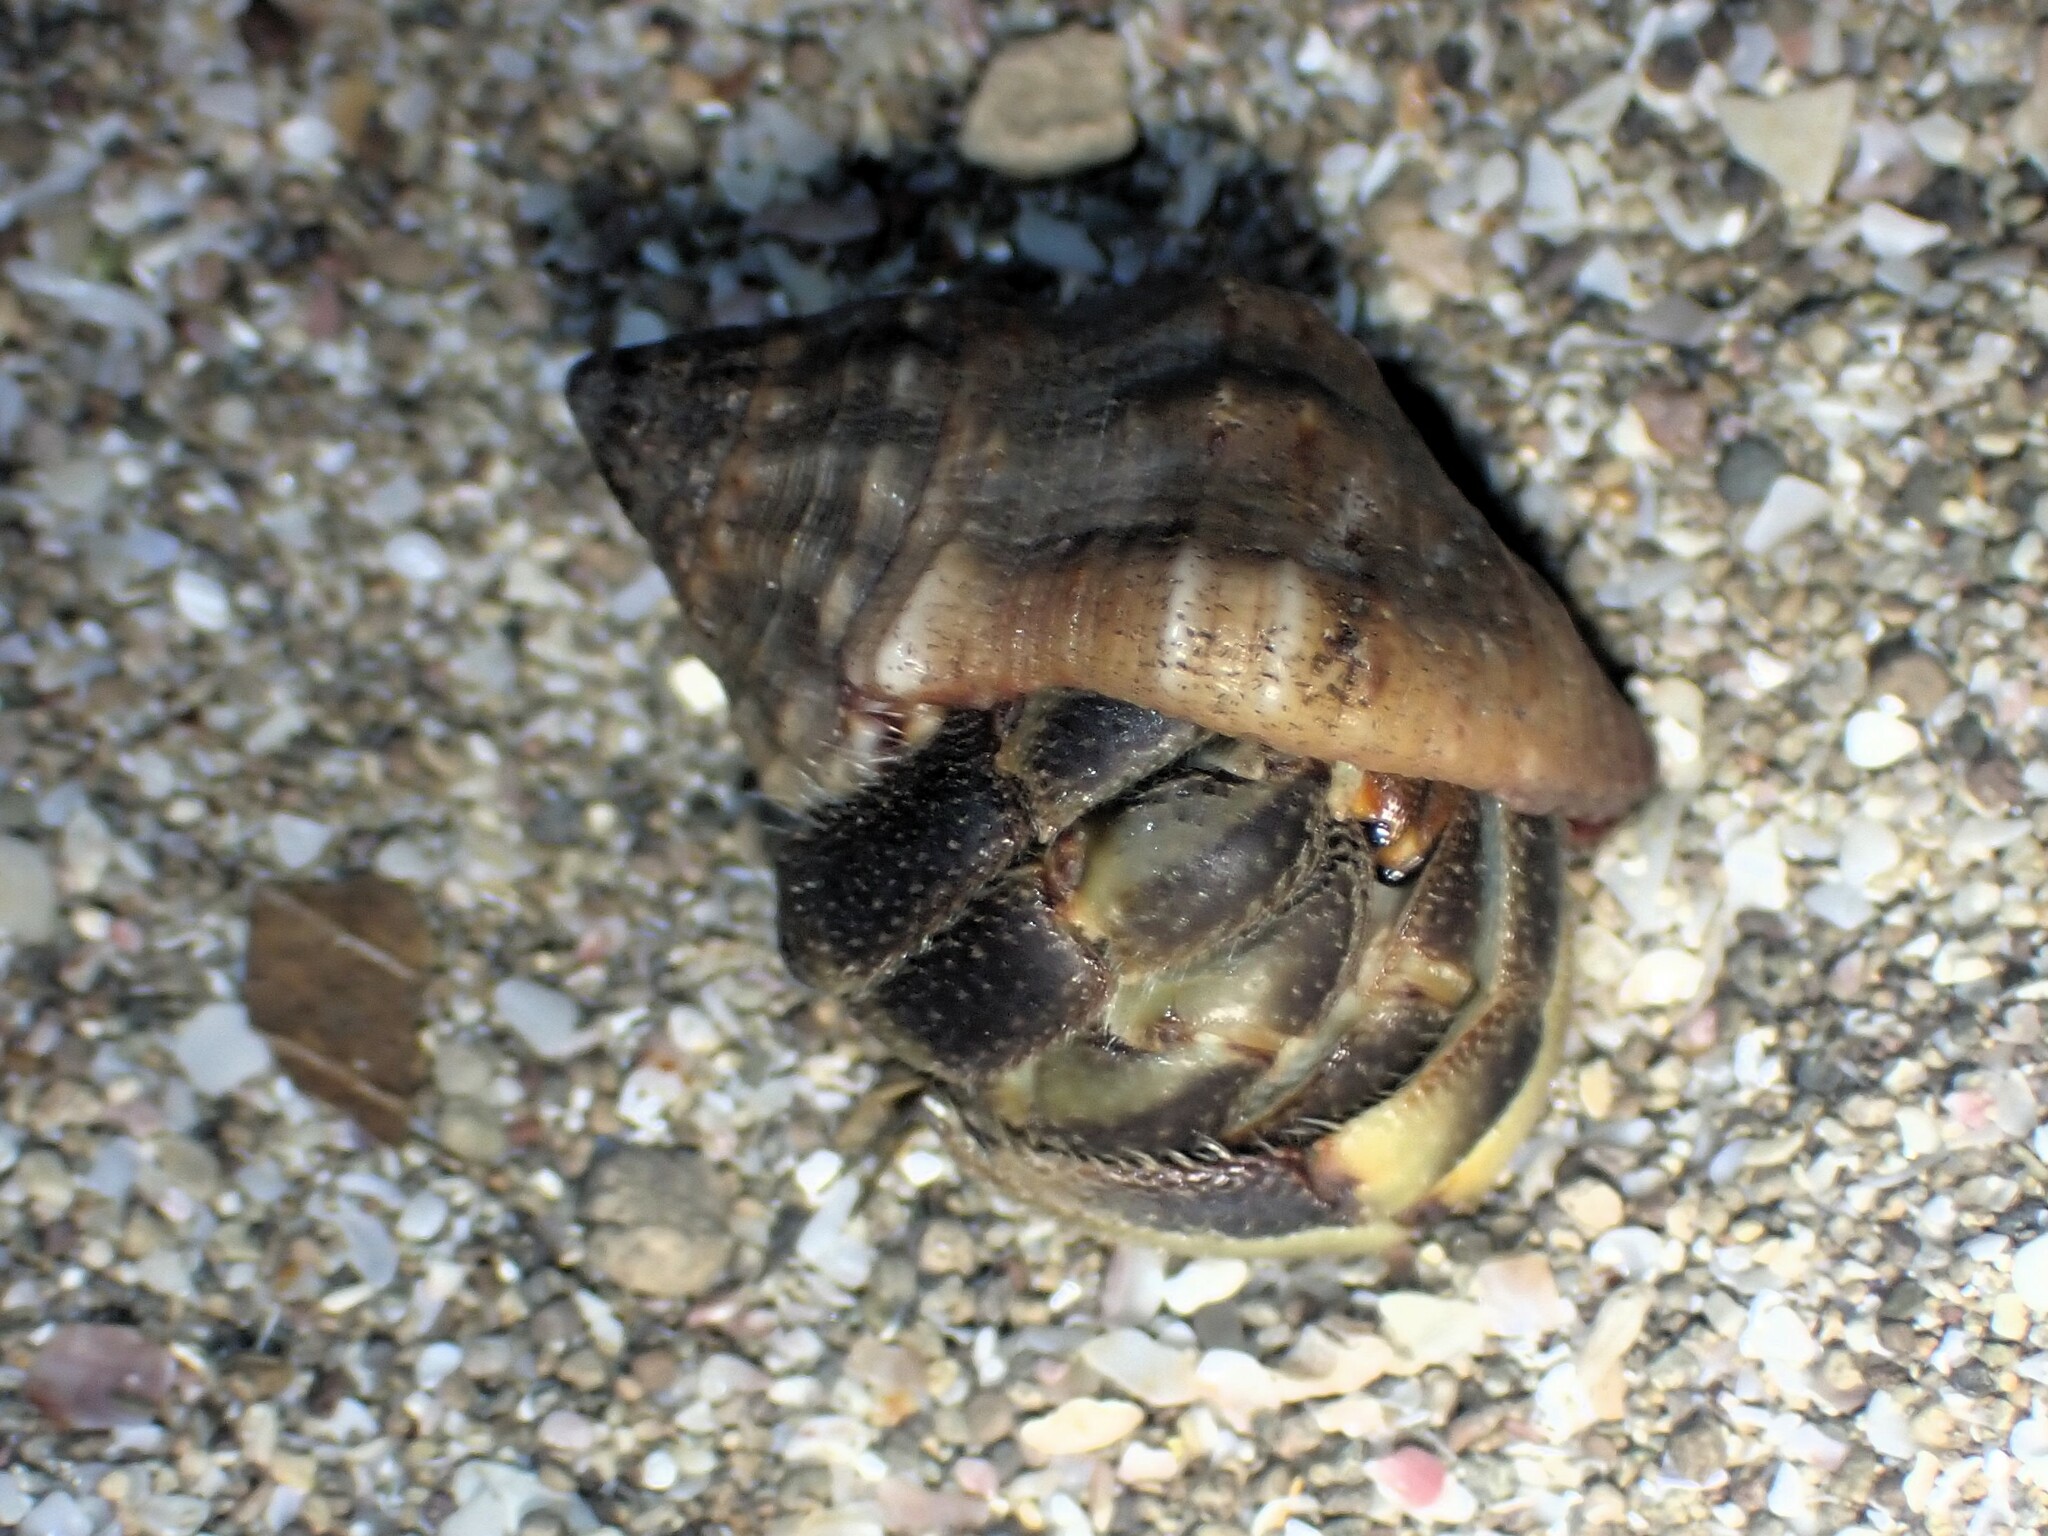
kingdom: Animalia
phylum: Arthropoda
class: Malacostraca
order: Decapoda
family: Coenobitidae
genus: Coenobita
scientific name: Coenobita compressus
